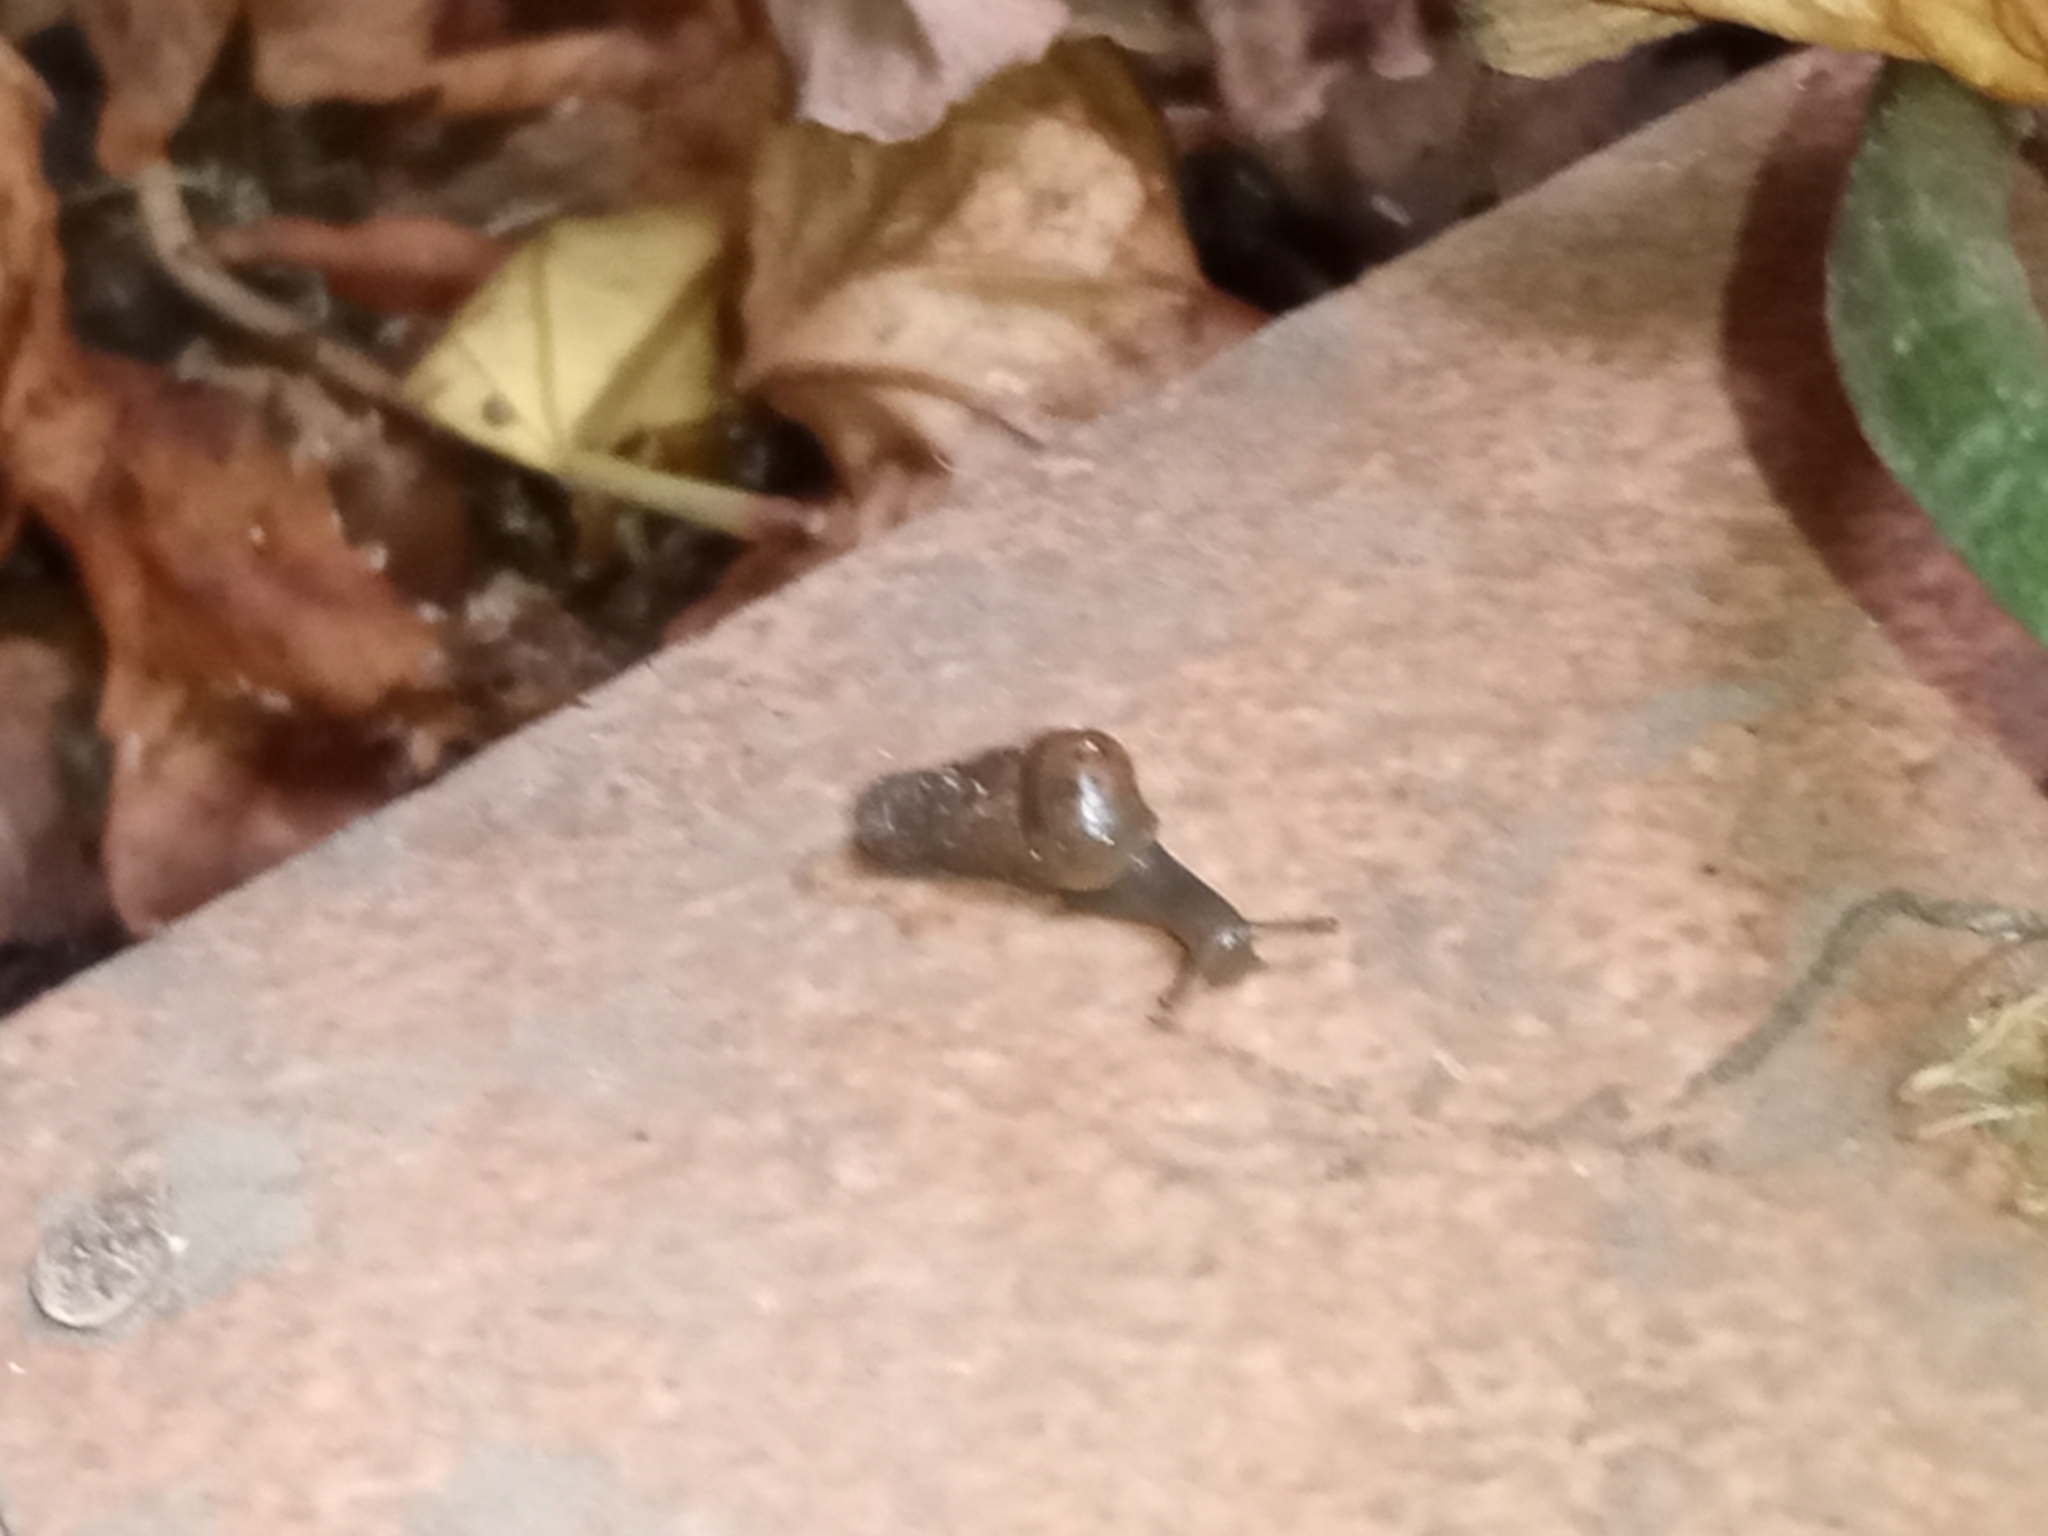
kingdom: Animalia
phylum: Mollusca
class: Gastropoda
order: Stylommatophora
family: Achatinidae
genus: Rumina
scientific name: Rumina decollata
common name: Decollate snail
